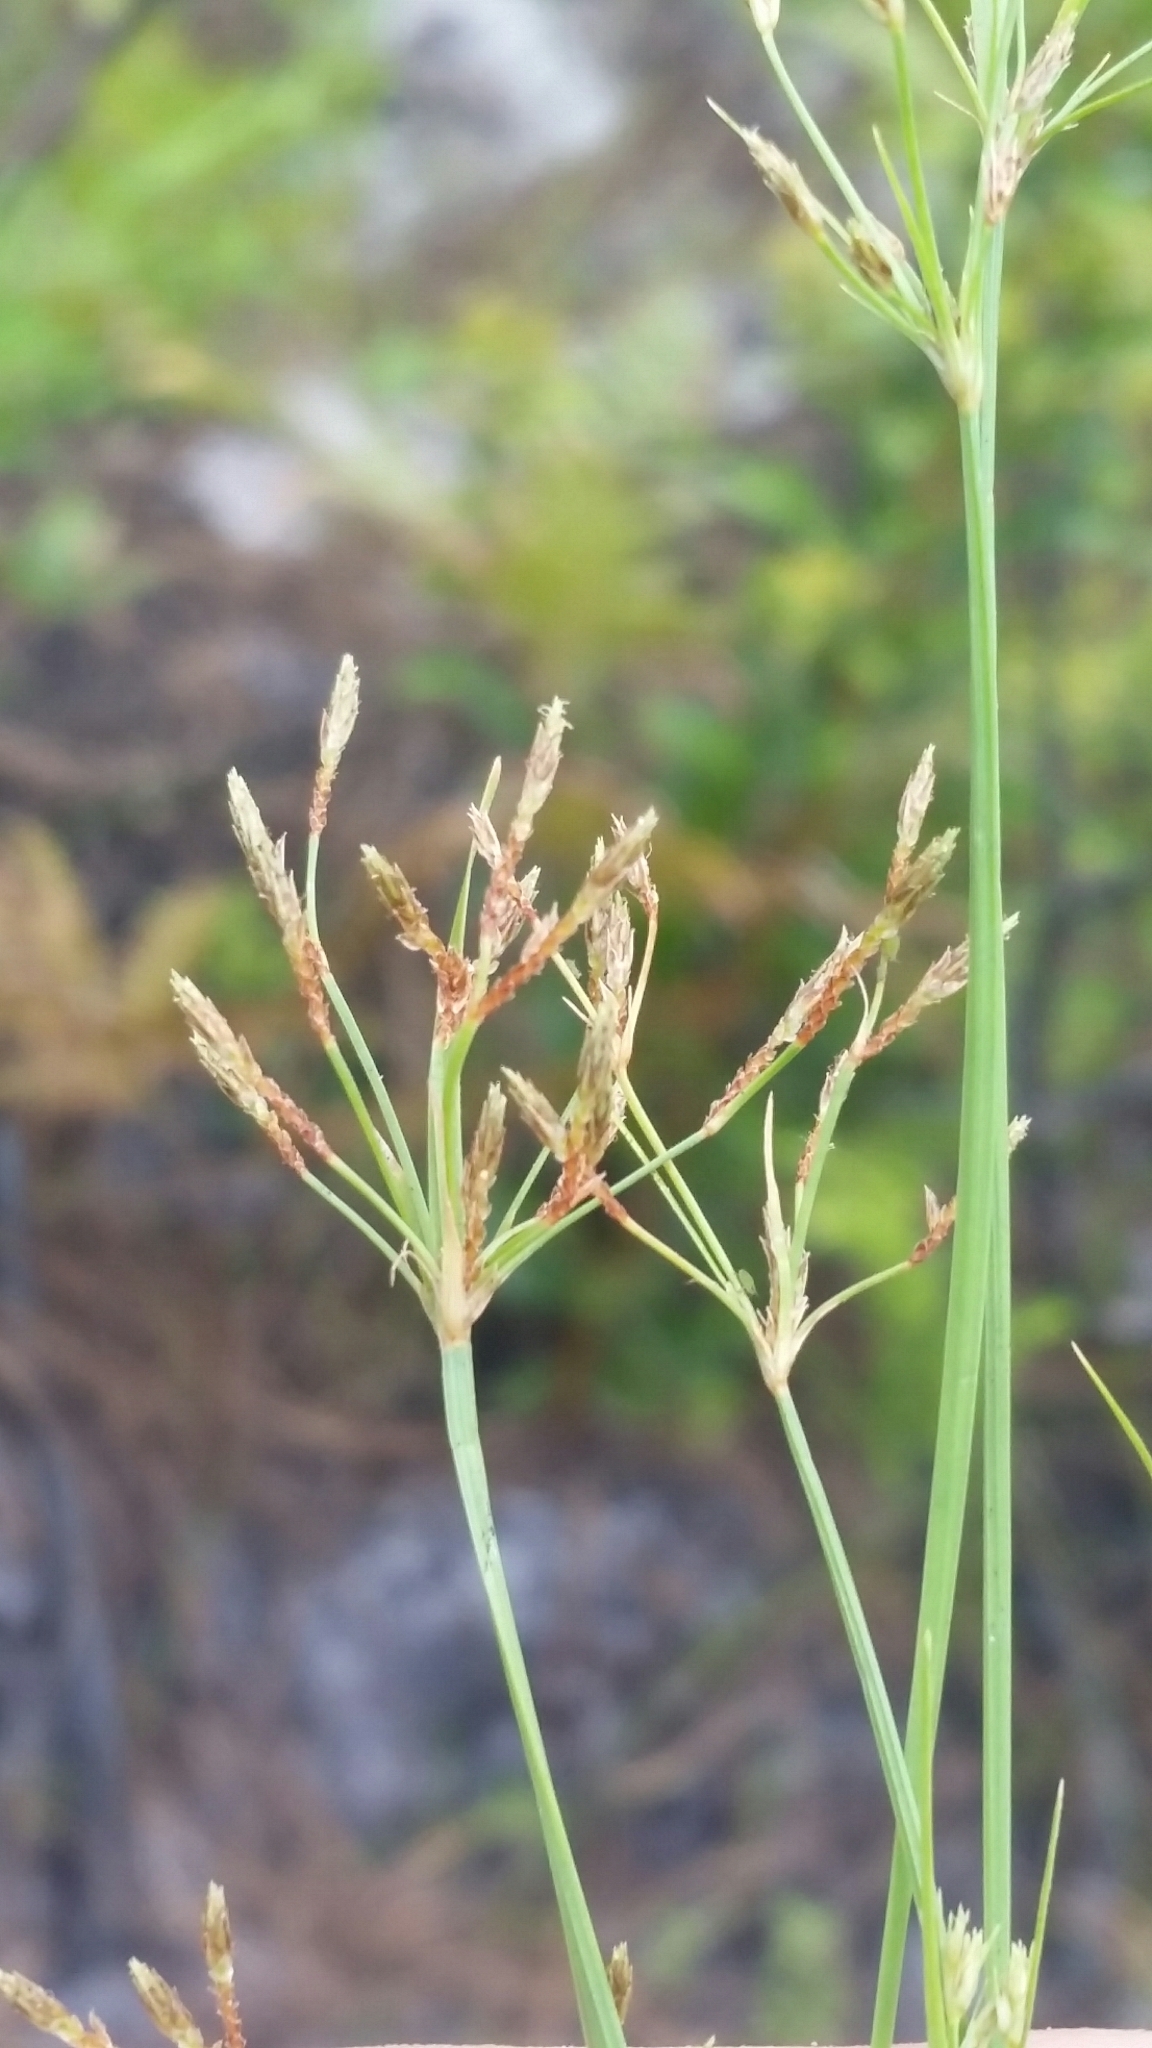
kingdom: Plantae
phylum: Tracheophyta
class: Liliopsida
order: Poales
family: Cyperaceae
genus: Fimbristylis
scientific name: Fimbristylis autumnalis
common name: Slender fimbristylis
